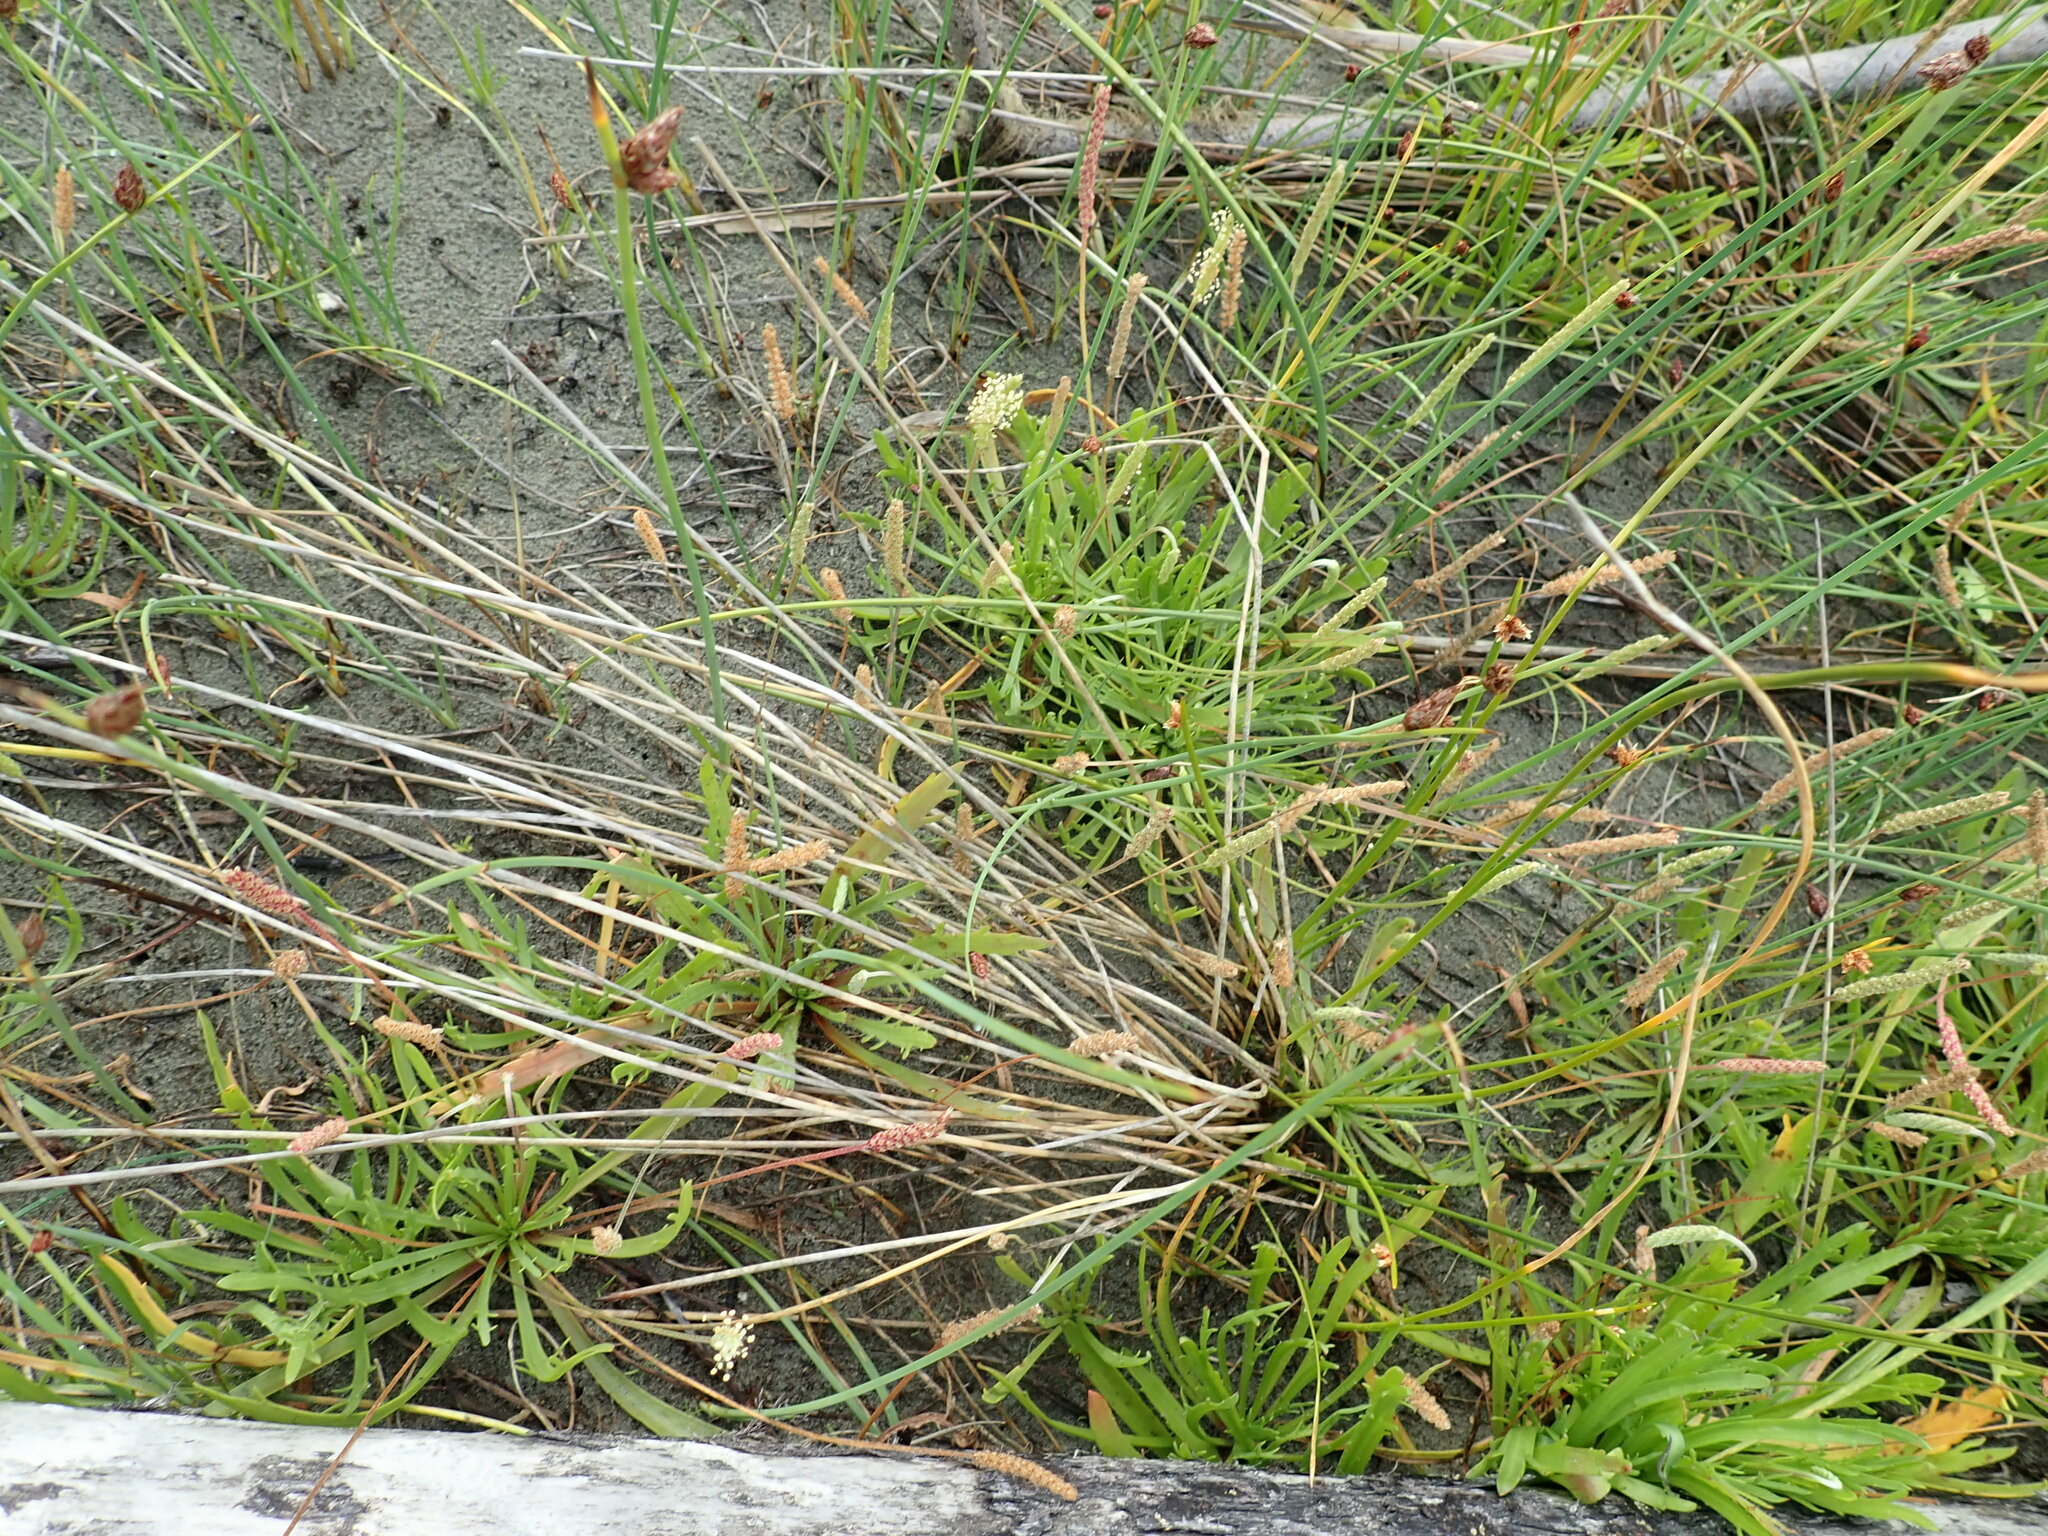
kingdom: Plantae
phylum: Tracheophyta
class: Magnoliopsida
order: Lamiales
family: Plantaginaceae
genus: Plantago
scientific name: Plantago coronopus
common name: Buck's-horn plantain
